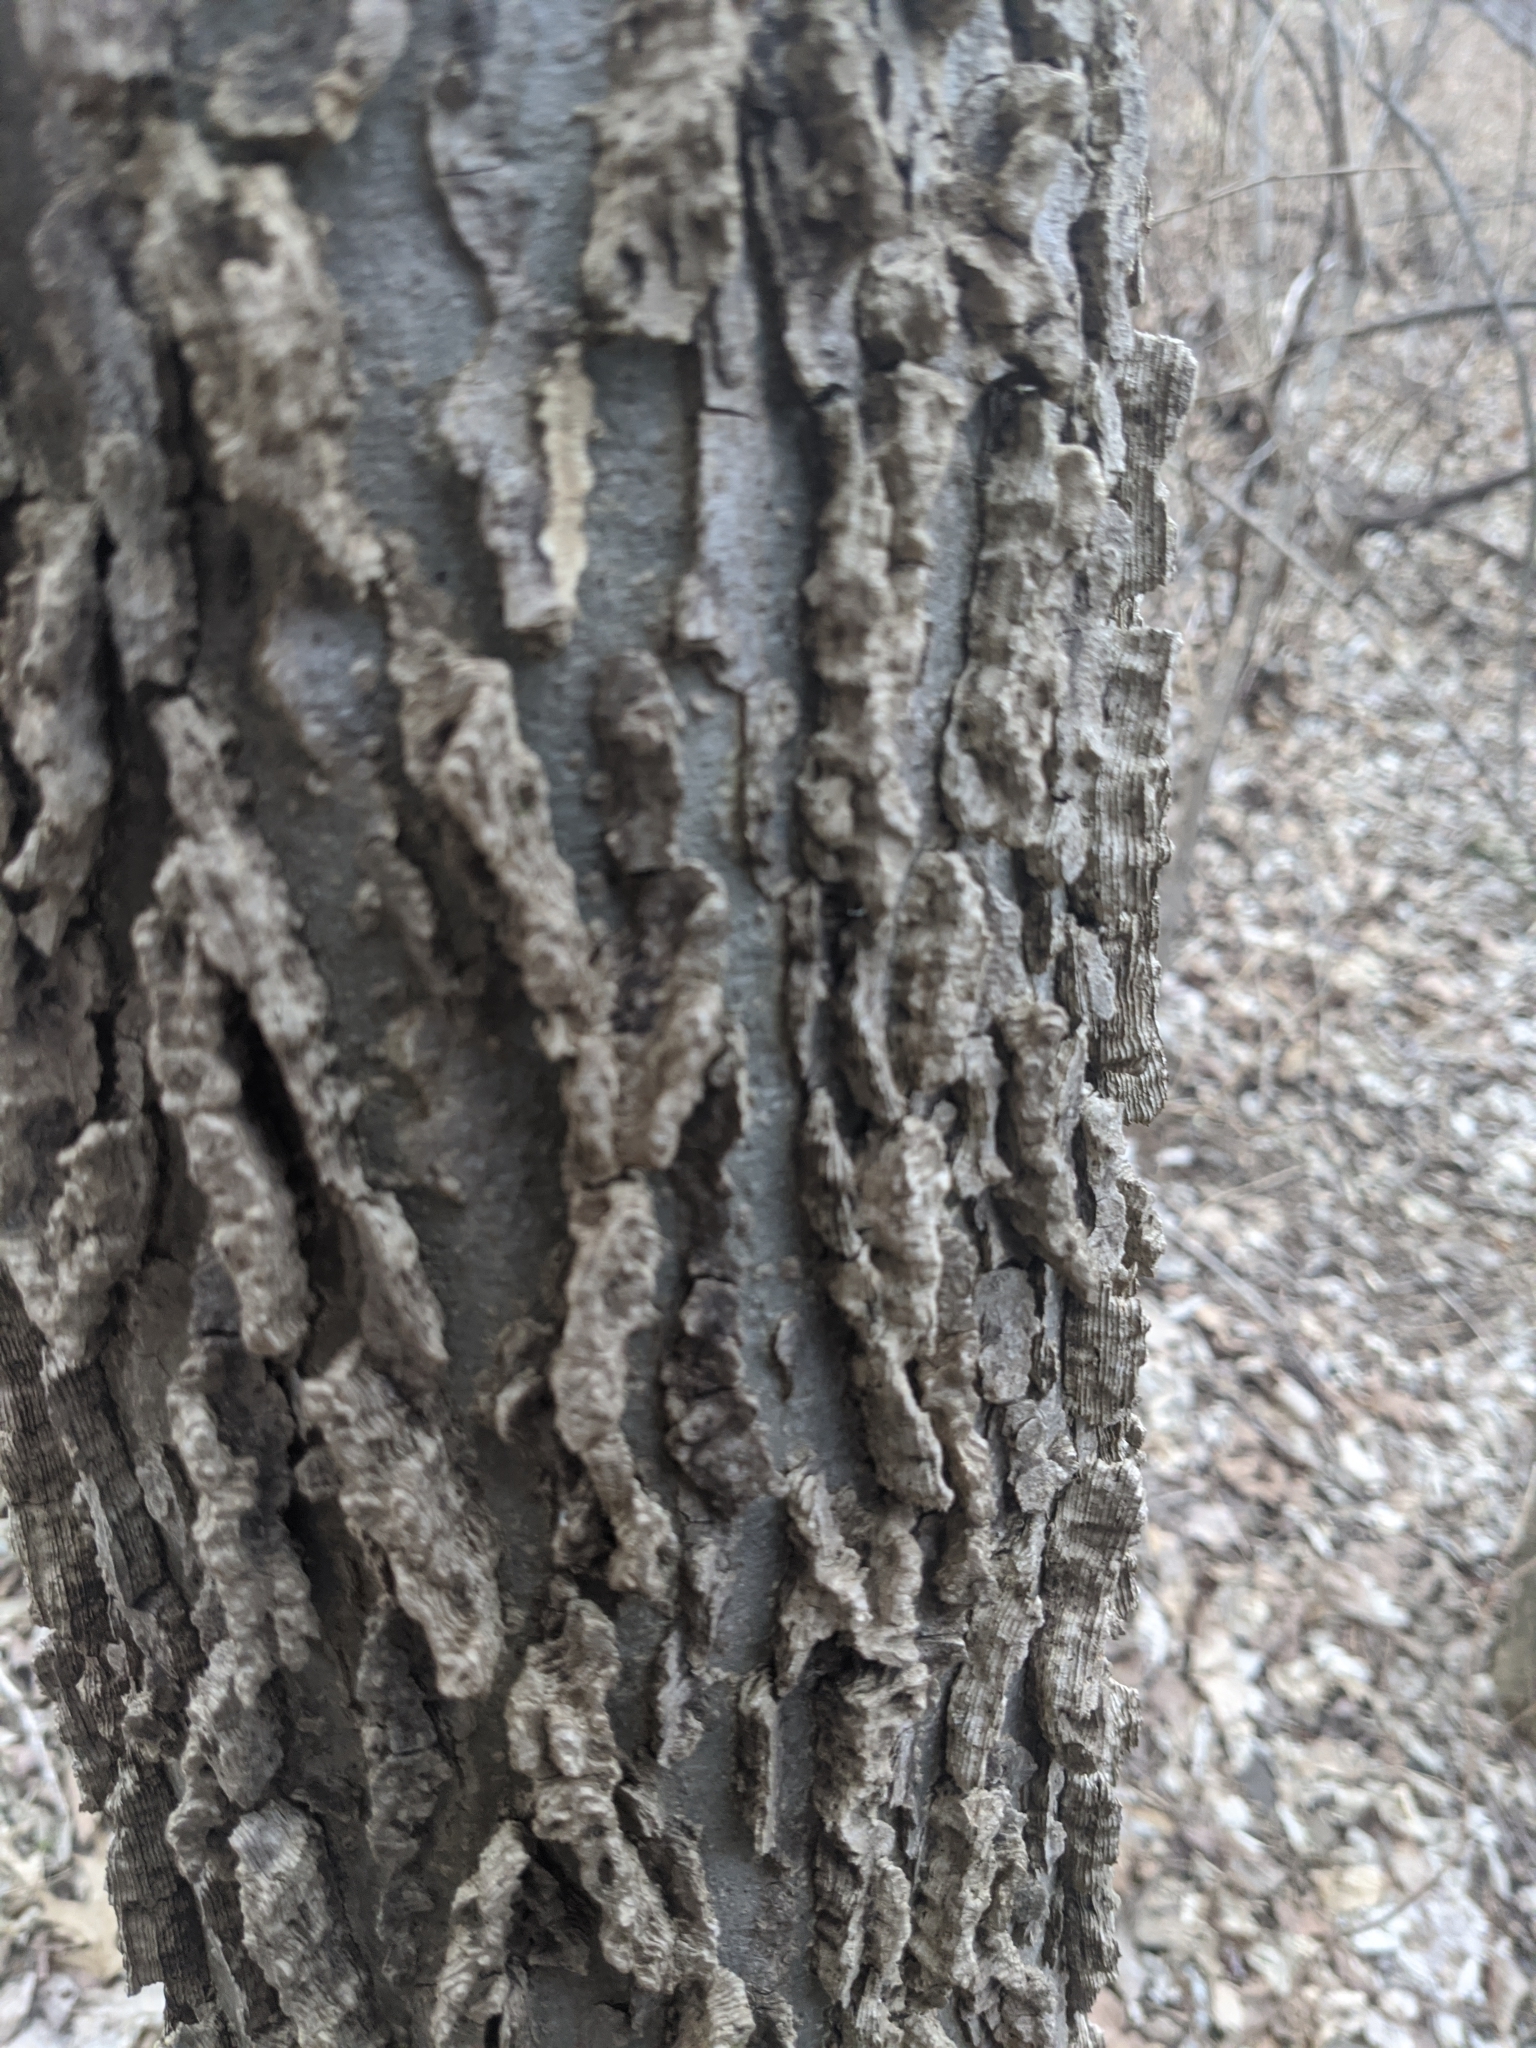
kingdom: Plantae
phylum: Tracheophyta
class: Magnoliopsida
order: Rosales
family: Cannabaceae
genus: Celtis
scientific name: Celtis occidentalis
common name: Common hackberry
